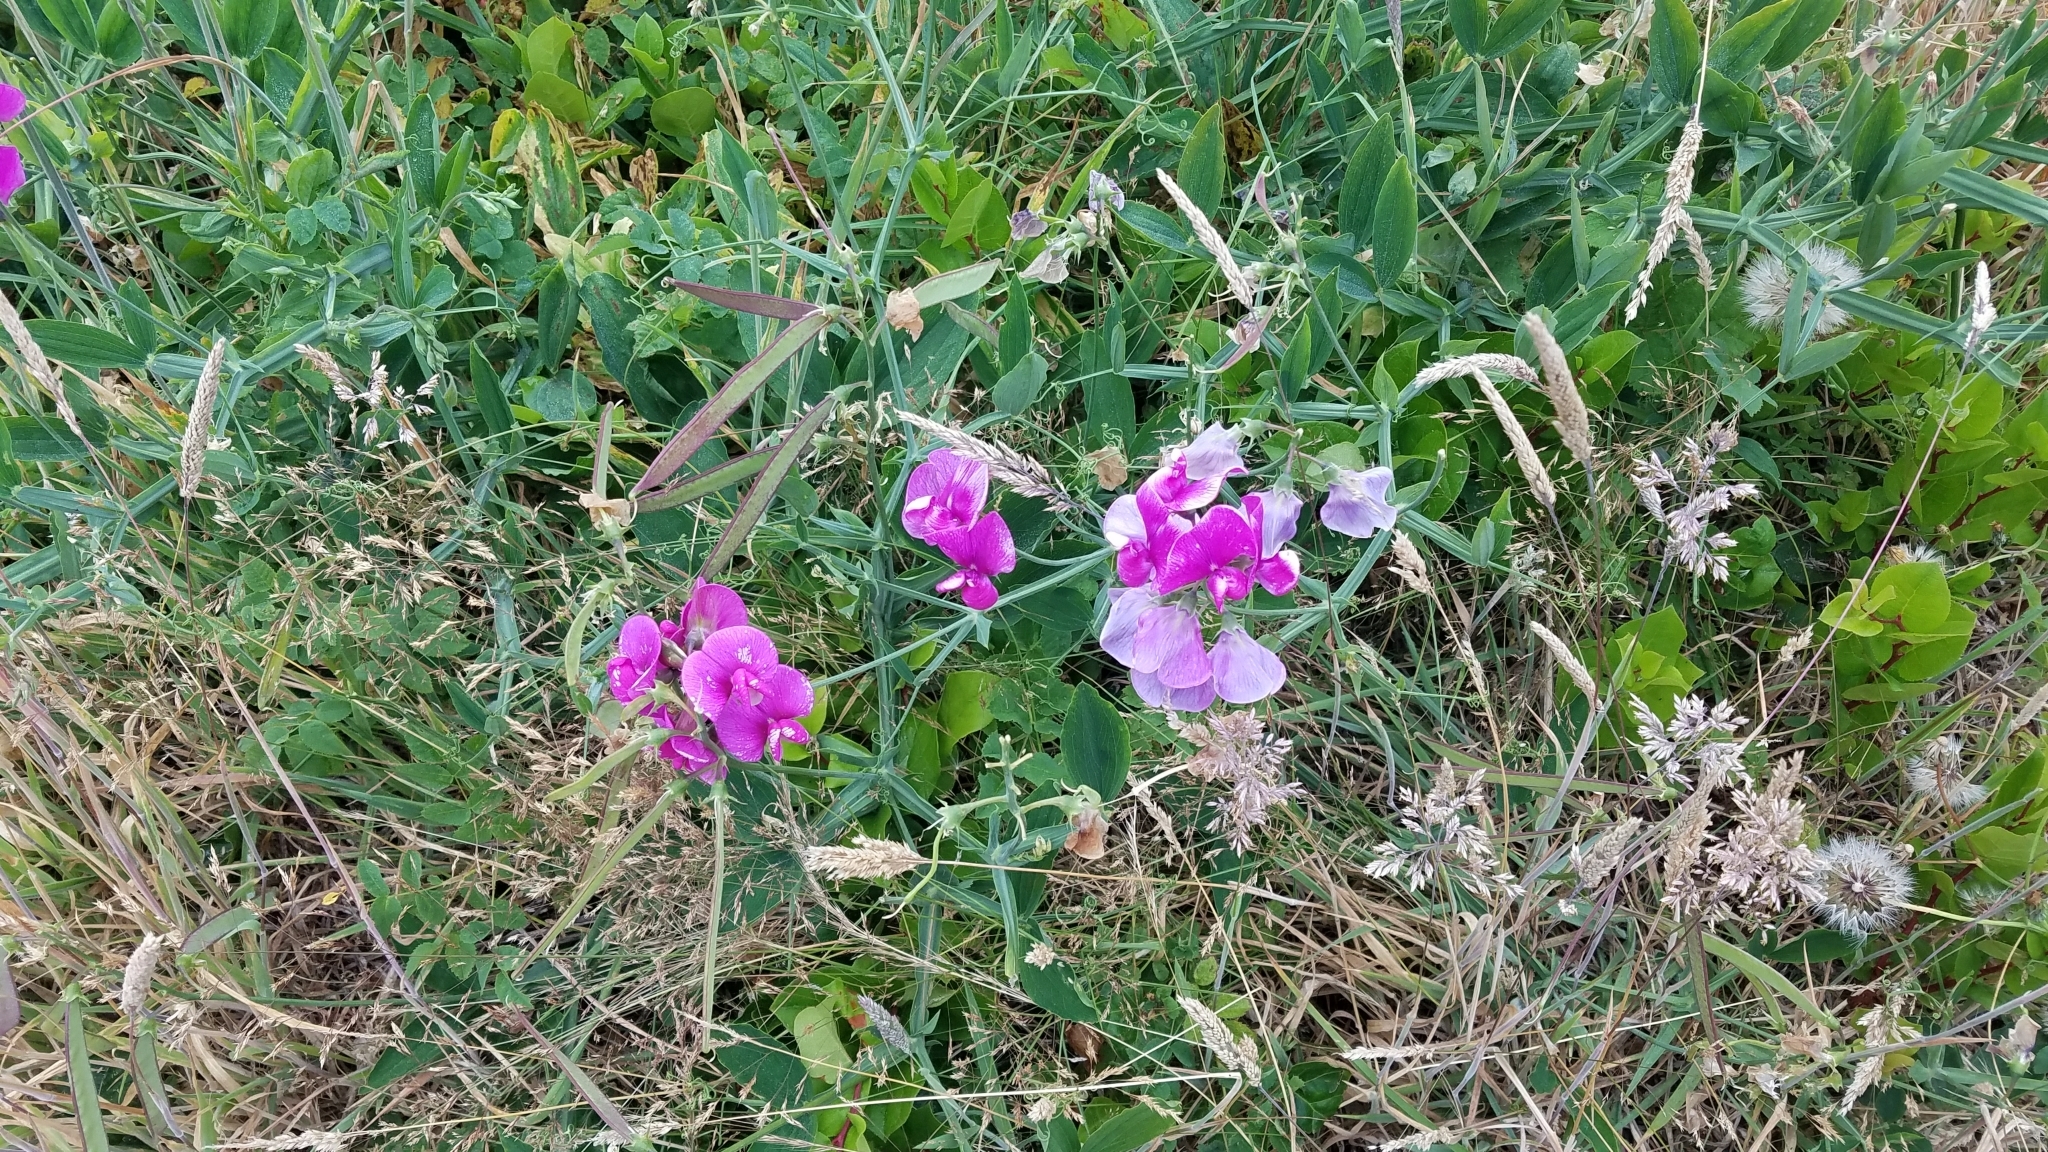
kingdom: Plantae
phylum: Tracheophyta
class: Magnoliopsida
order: Fabales
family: Fabaceae
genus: Lathyrus
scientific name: Lathyrus latifolius
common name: Perennial pea
